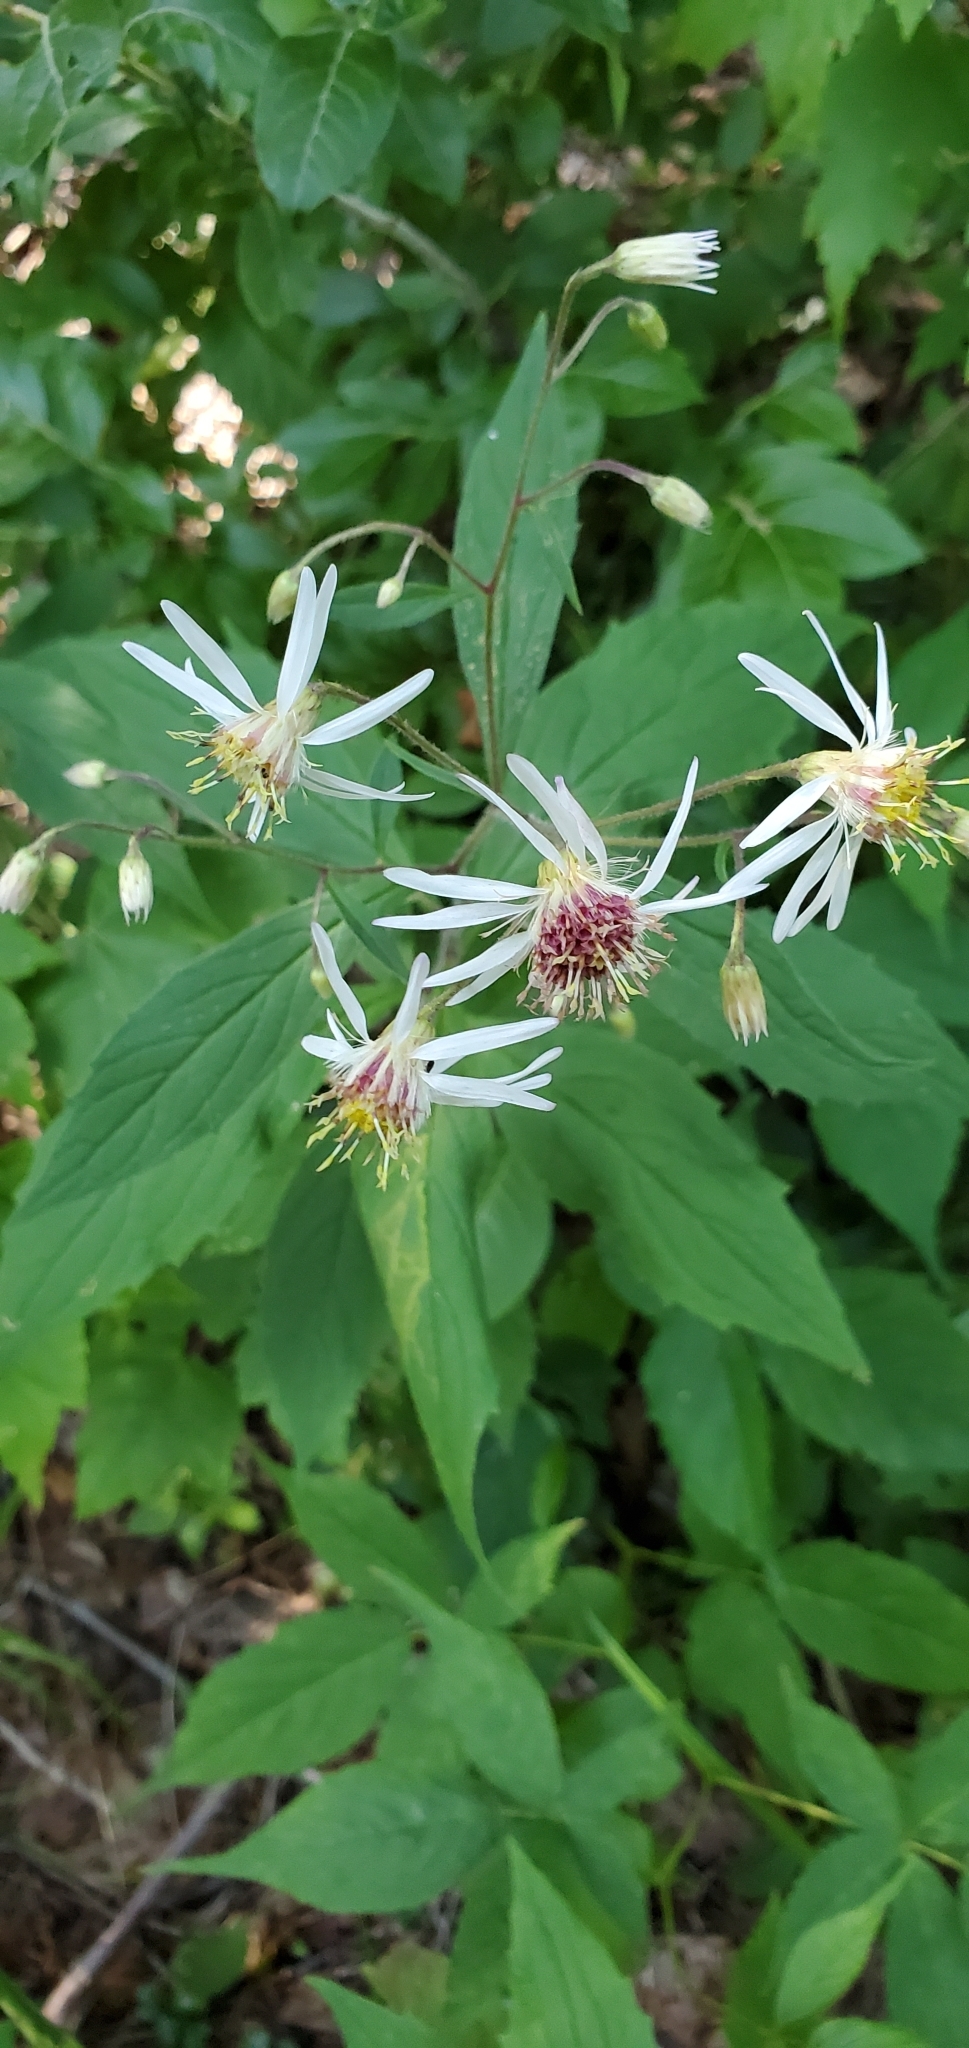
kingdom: Plantae
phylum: Tracheophyta
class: Magnoliopsida
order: Asterales
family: Asteraceae
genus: Oclemena
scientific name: Oclemena acuminata
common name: Mountain aster
